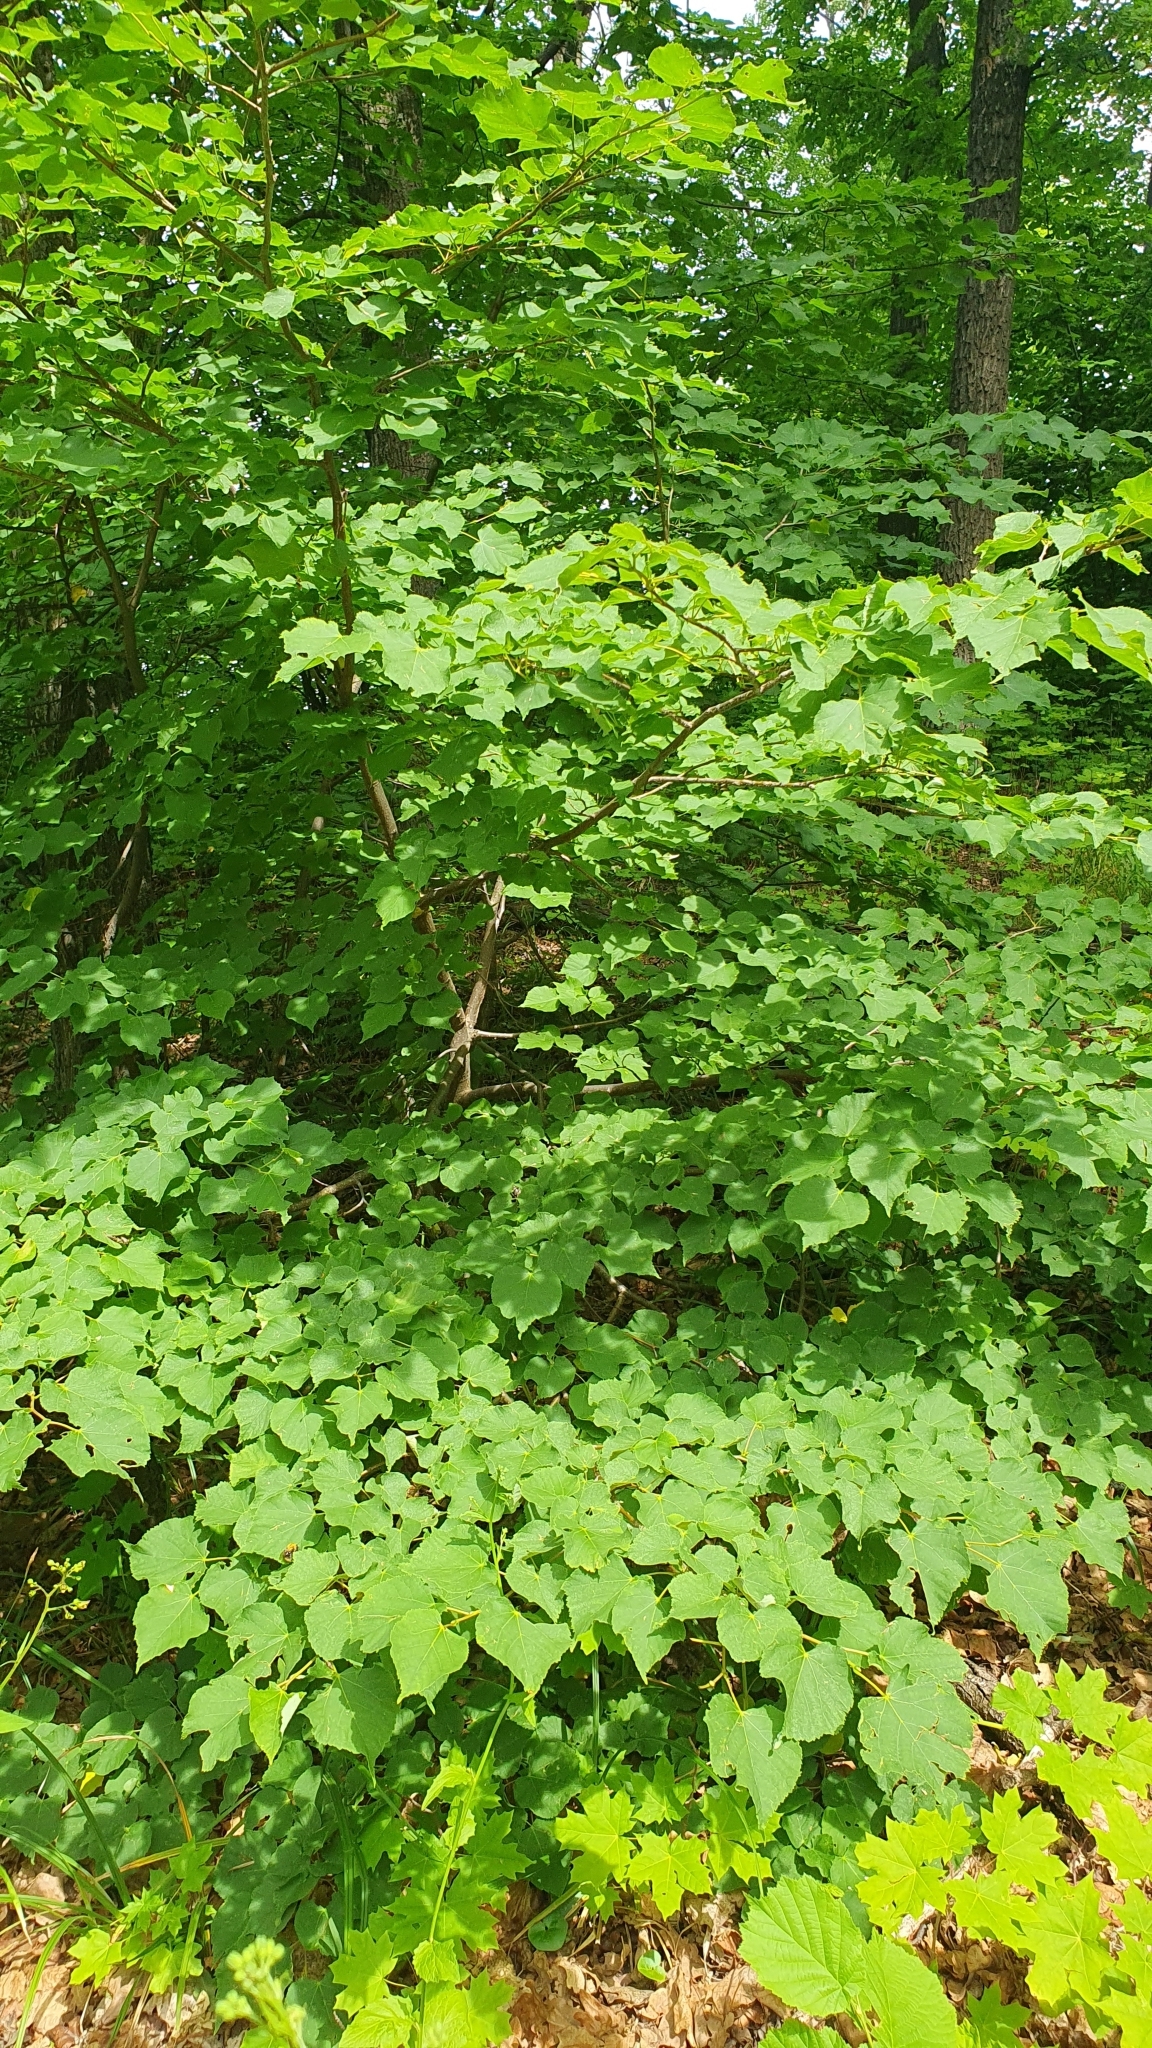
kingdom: Plantae
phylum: Tracheophyta
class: Magnoliopsida
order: Malvales
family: Malvaceae
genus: Tilia
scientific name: Tilia cordata
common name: Small-leaved lime
